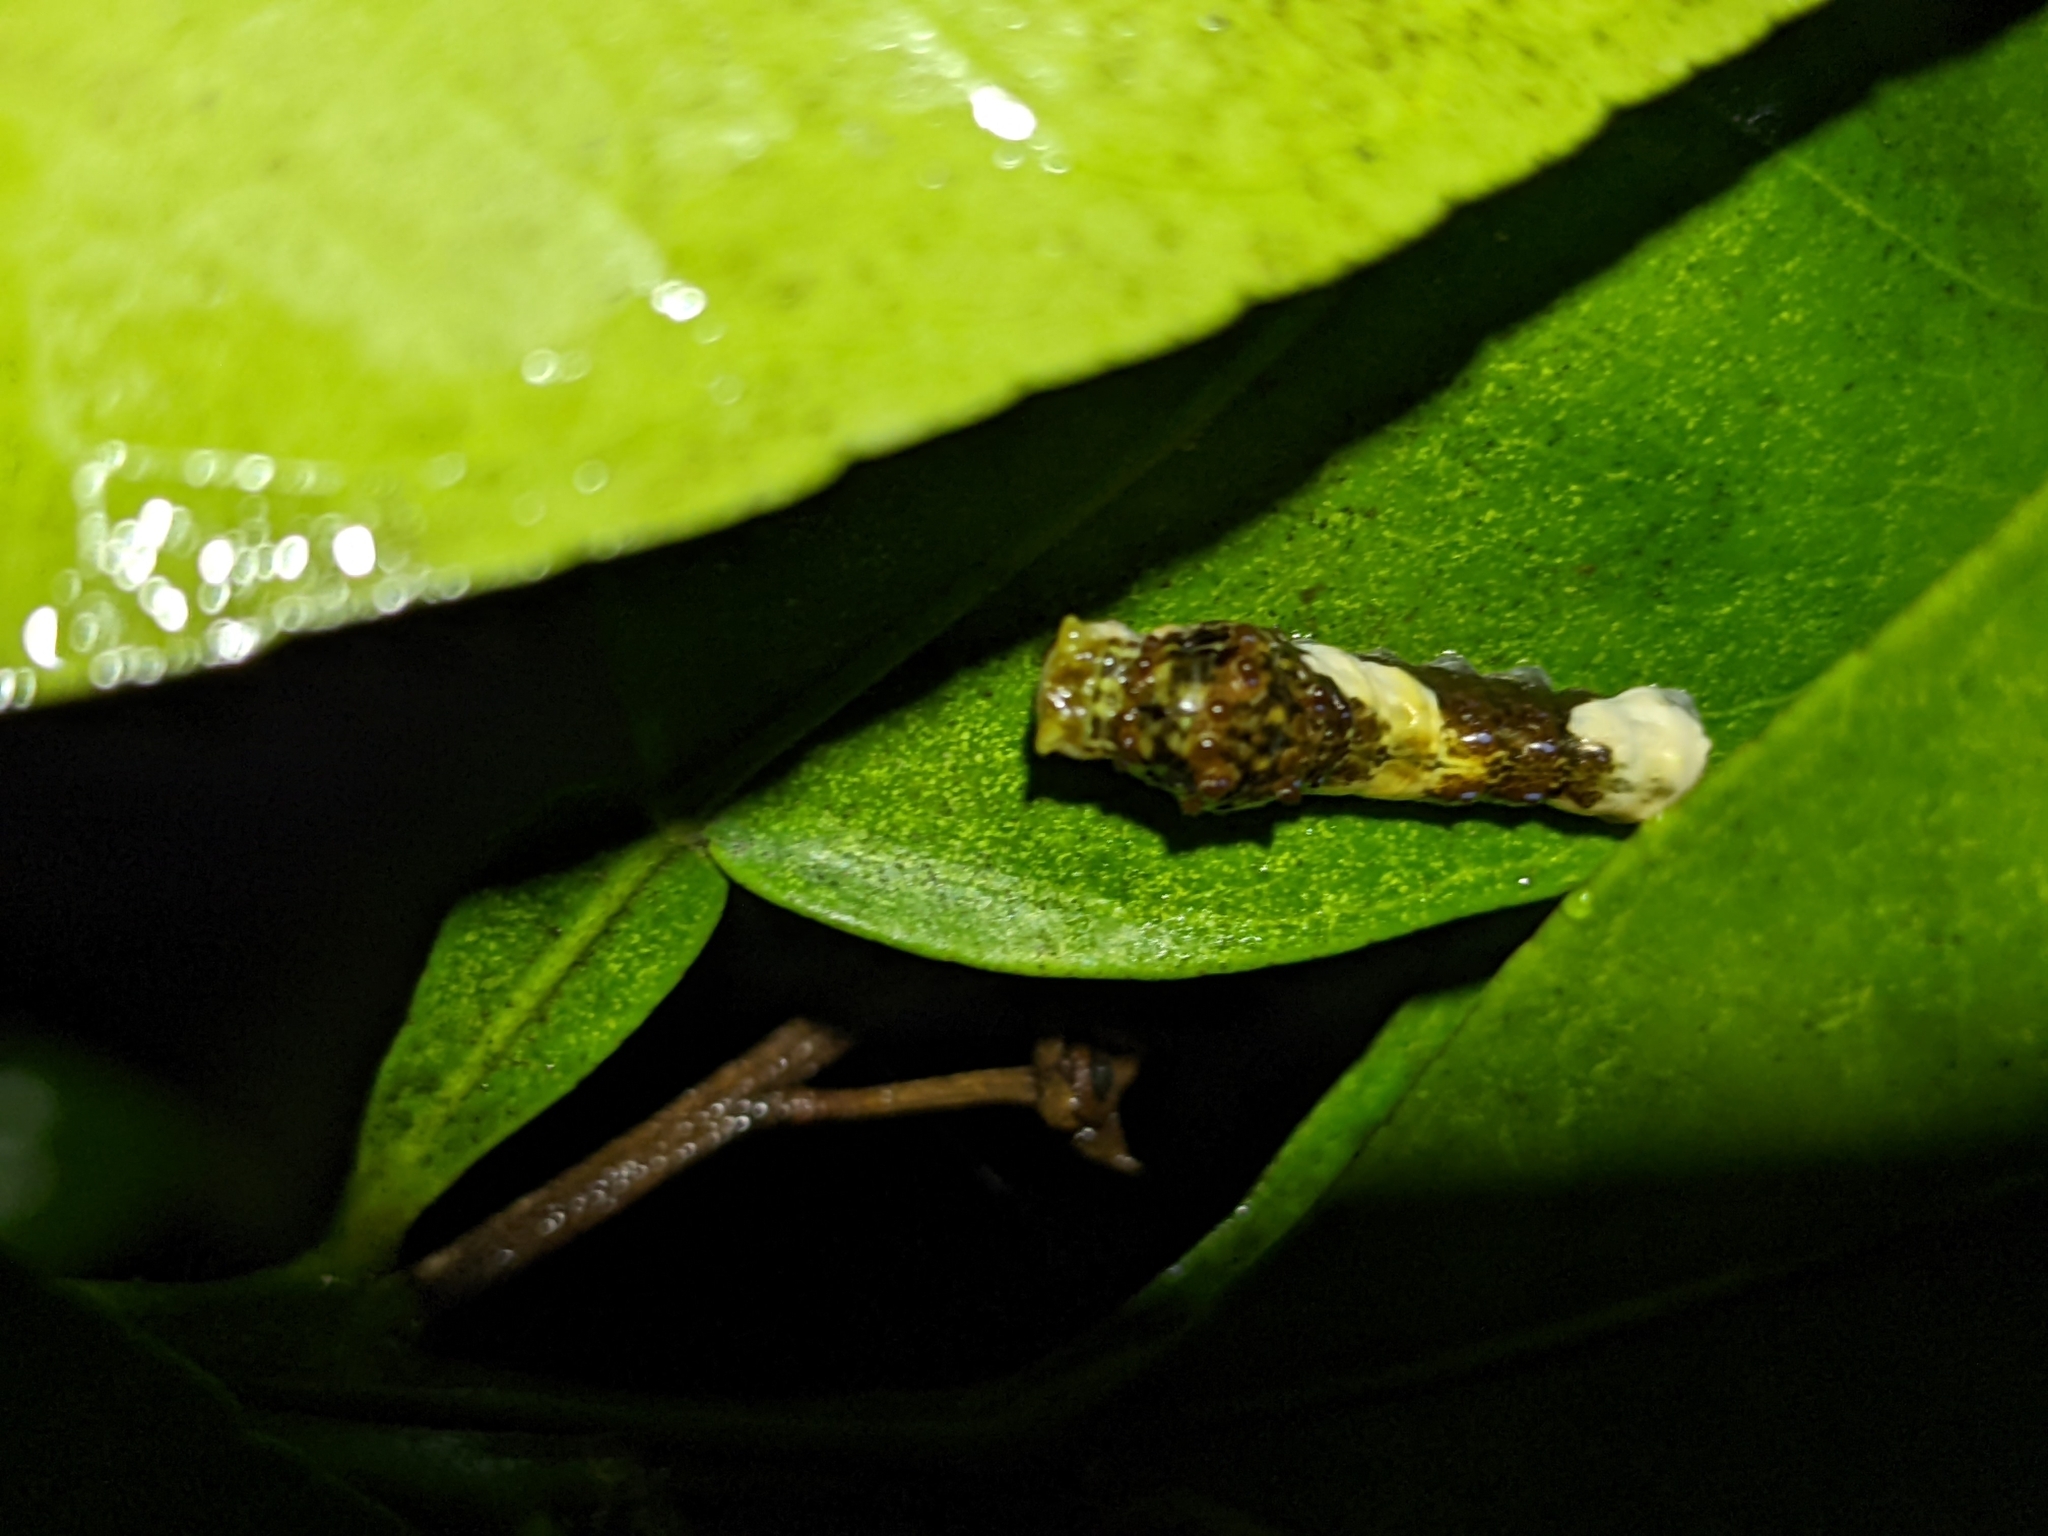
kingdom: Animalia
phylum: Arthropoda
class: Insecta
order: Lepidoptera
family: Papilionidae
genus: Papilio
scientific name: Papilio cresphontes
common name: Giant swallowtail
